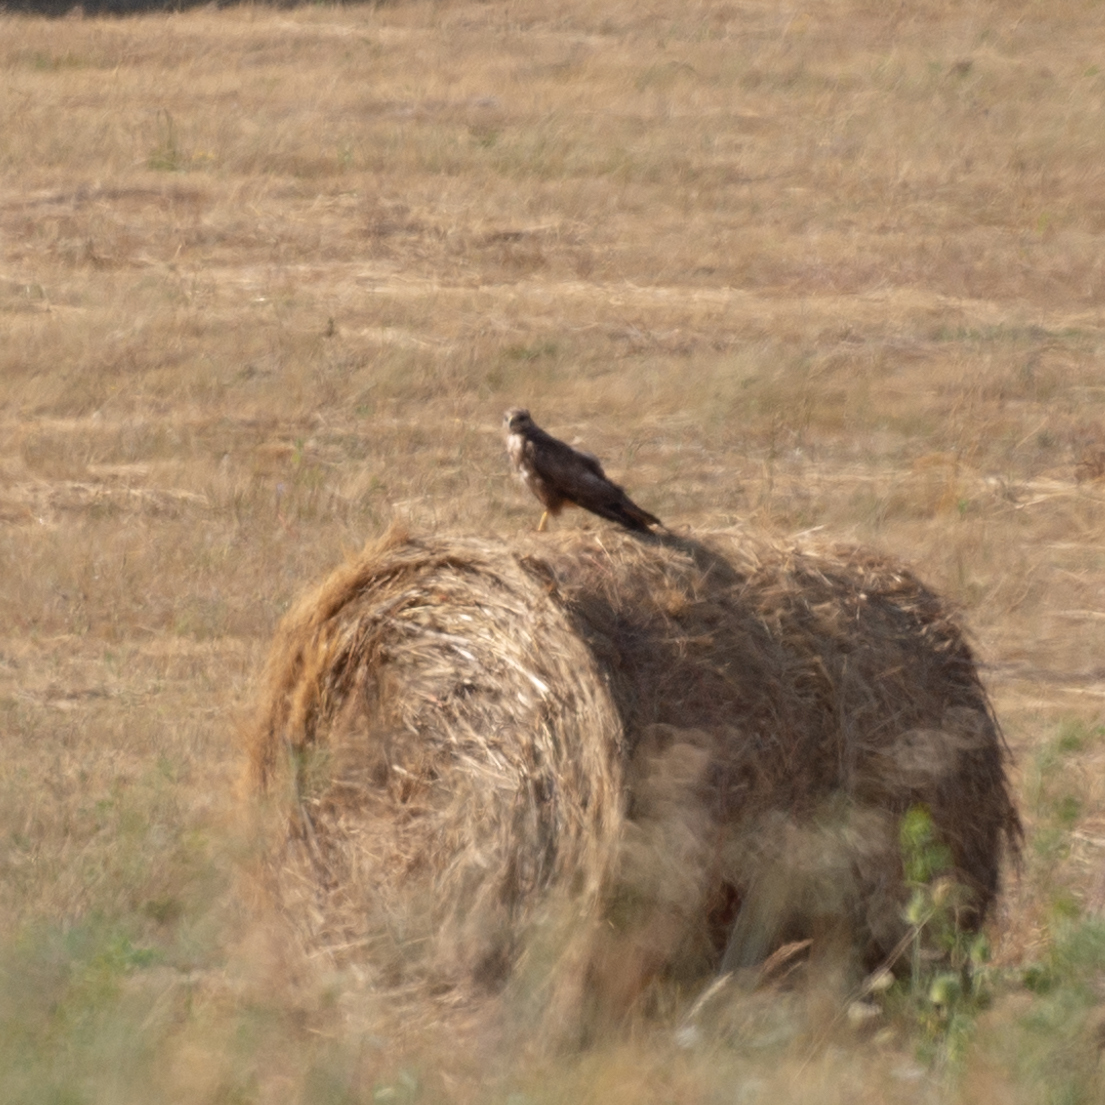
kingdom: Animalia
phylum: Chordata
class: Aves
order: Accipitriformes
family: Accipitridae
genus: Buteo
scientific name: Buteo buteo
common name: Common buzzard
